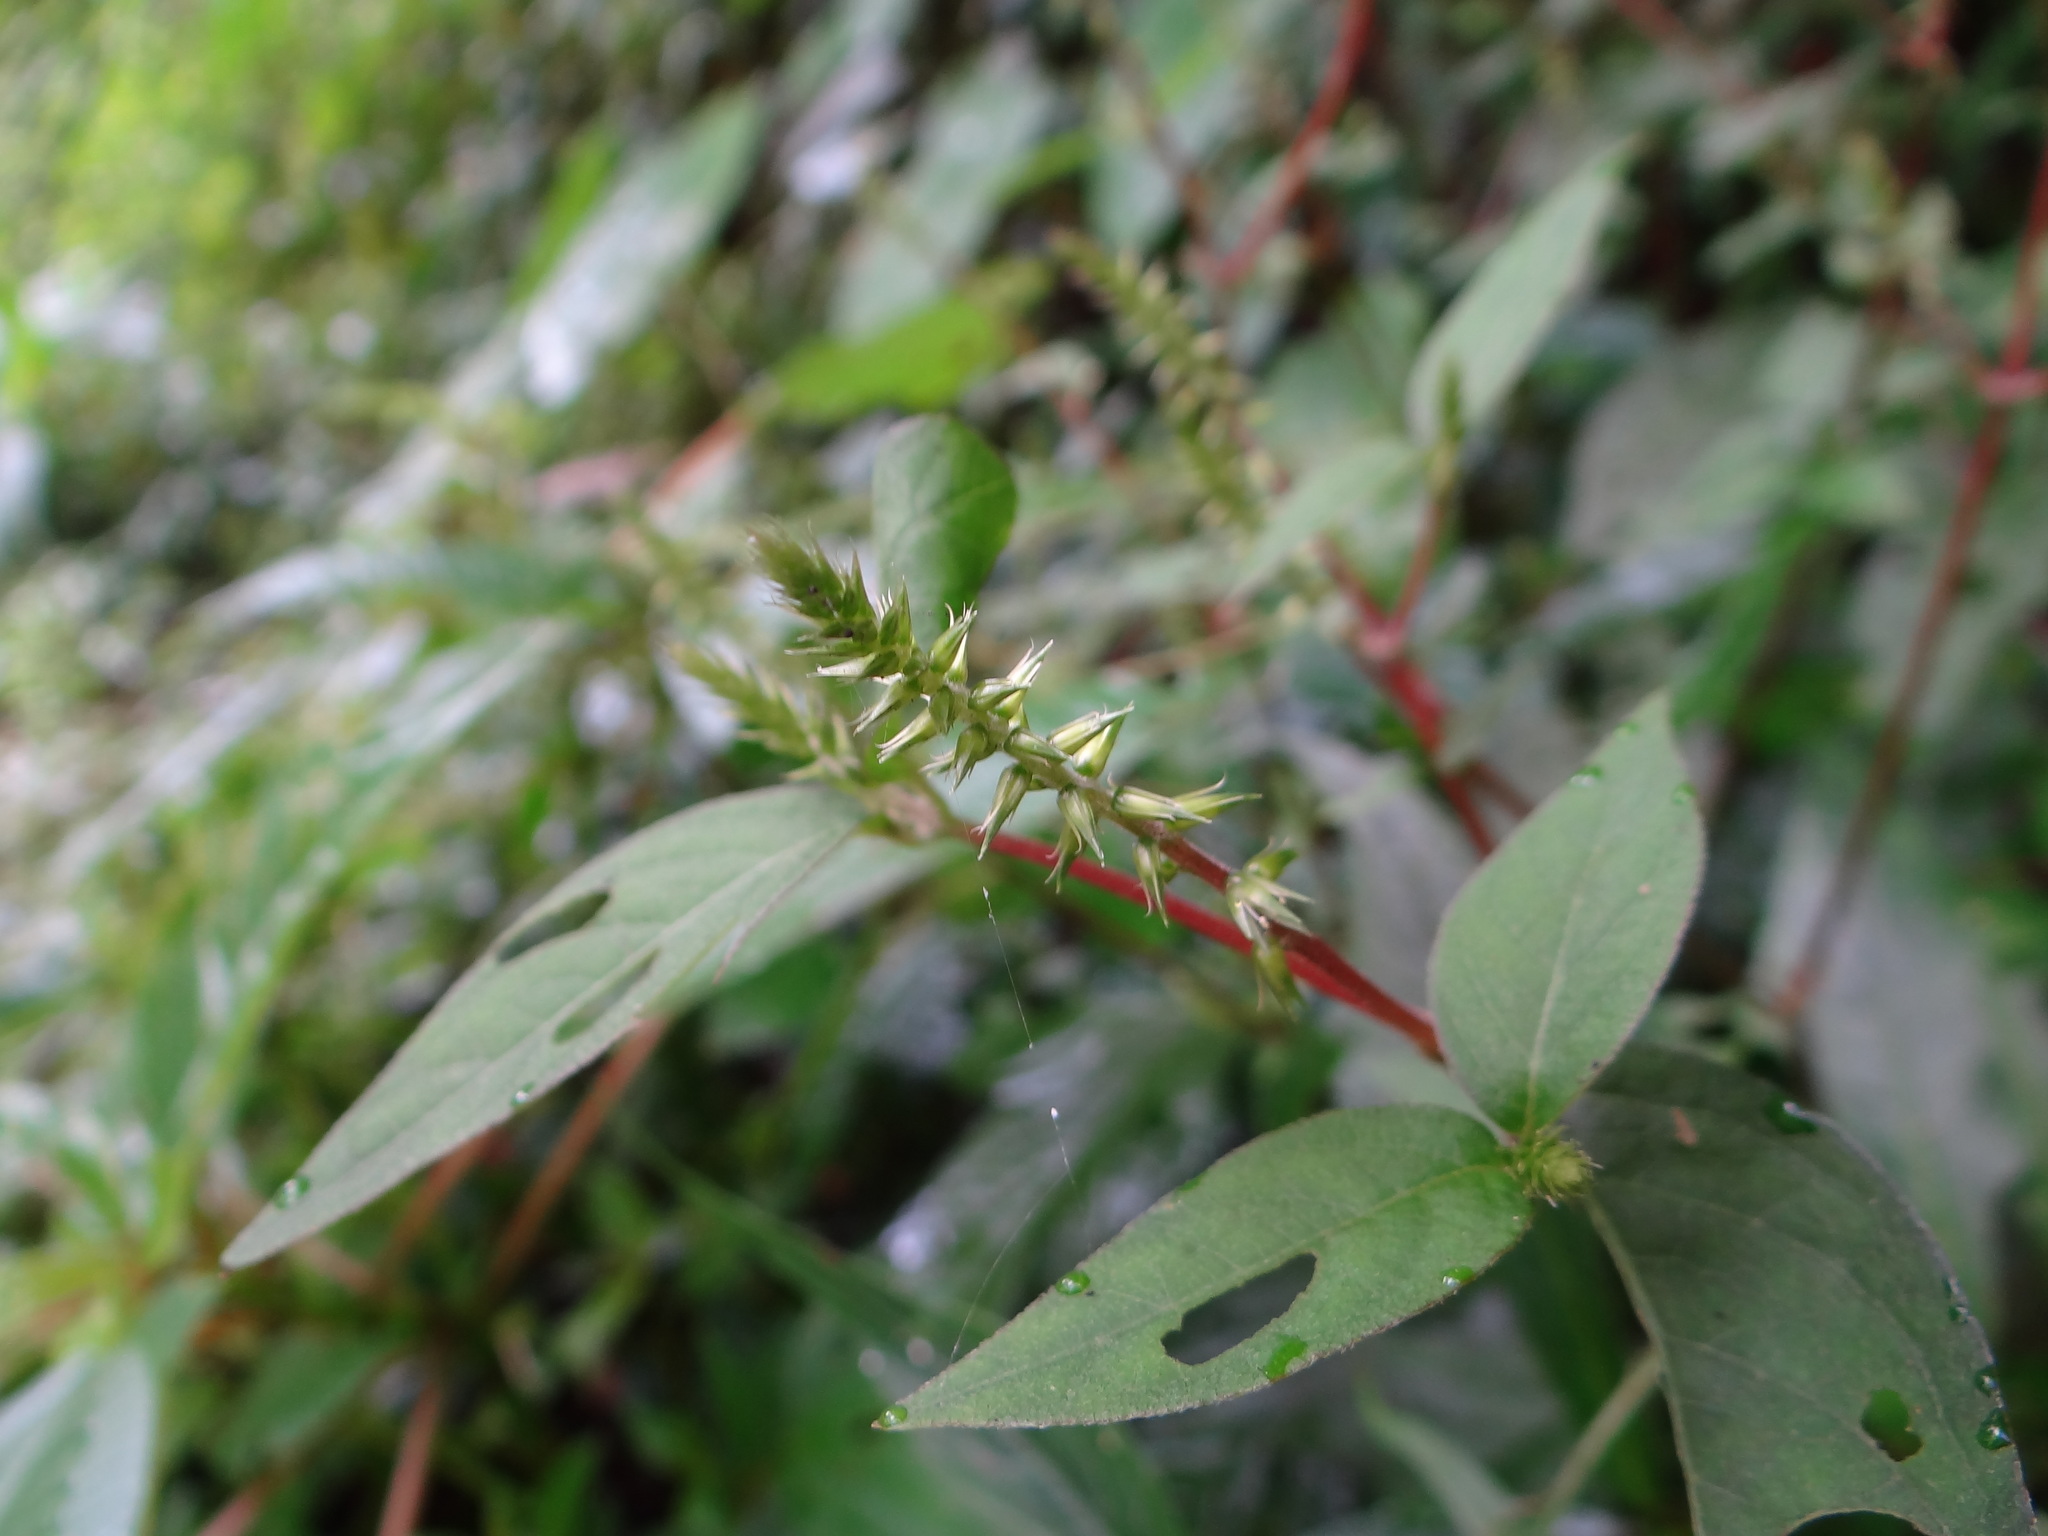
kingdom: Plantae
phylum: Tracheophyta
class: Magnoliopsida
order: Caryophyllales
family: Amaranthaceae
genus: Achyranthes
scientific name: Achyranthes aspera
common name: Devil's horsewhip
